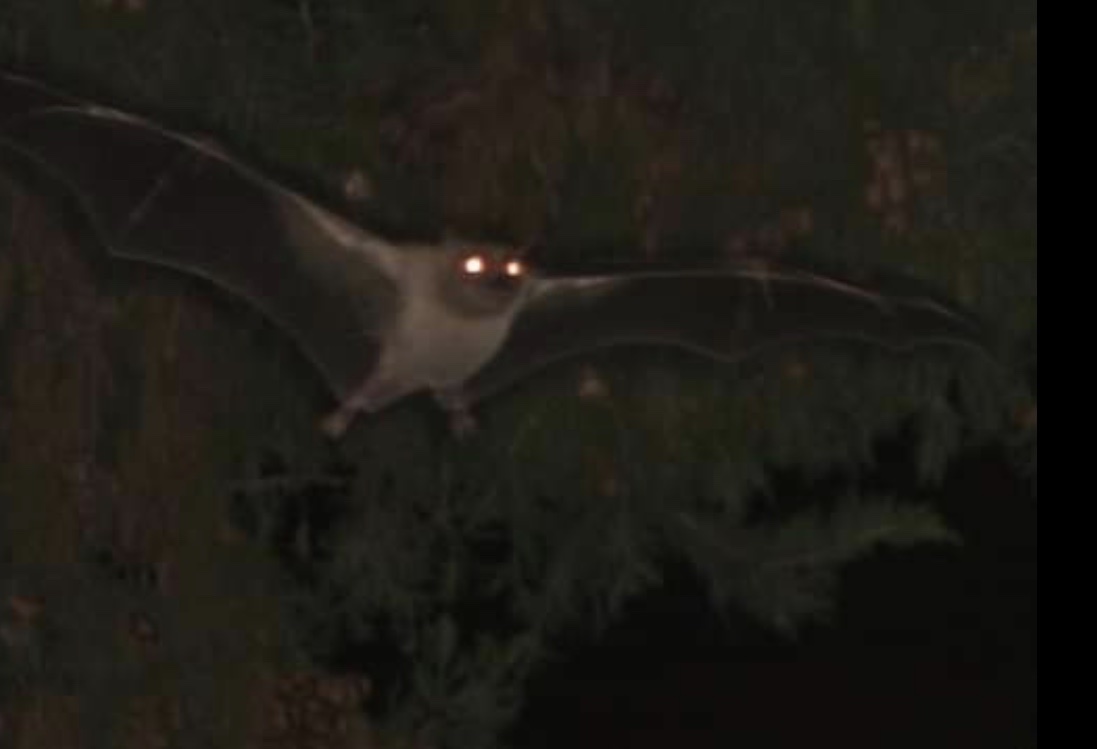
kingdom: Animalia
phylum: Chordata
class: Mammalia
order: Chiroptera
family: Pteropodidae
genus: Rousettus
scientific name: Rousettus aegyptiacus
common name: Egyptian rousette
